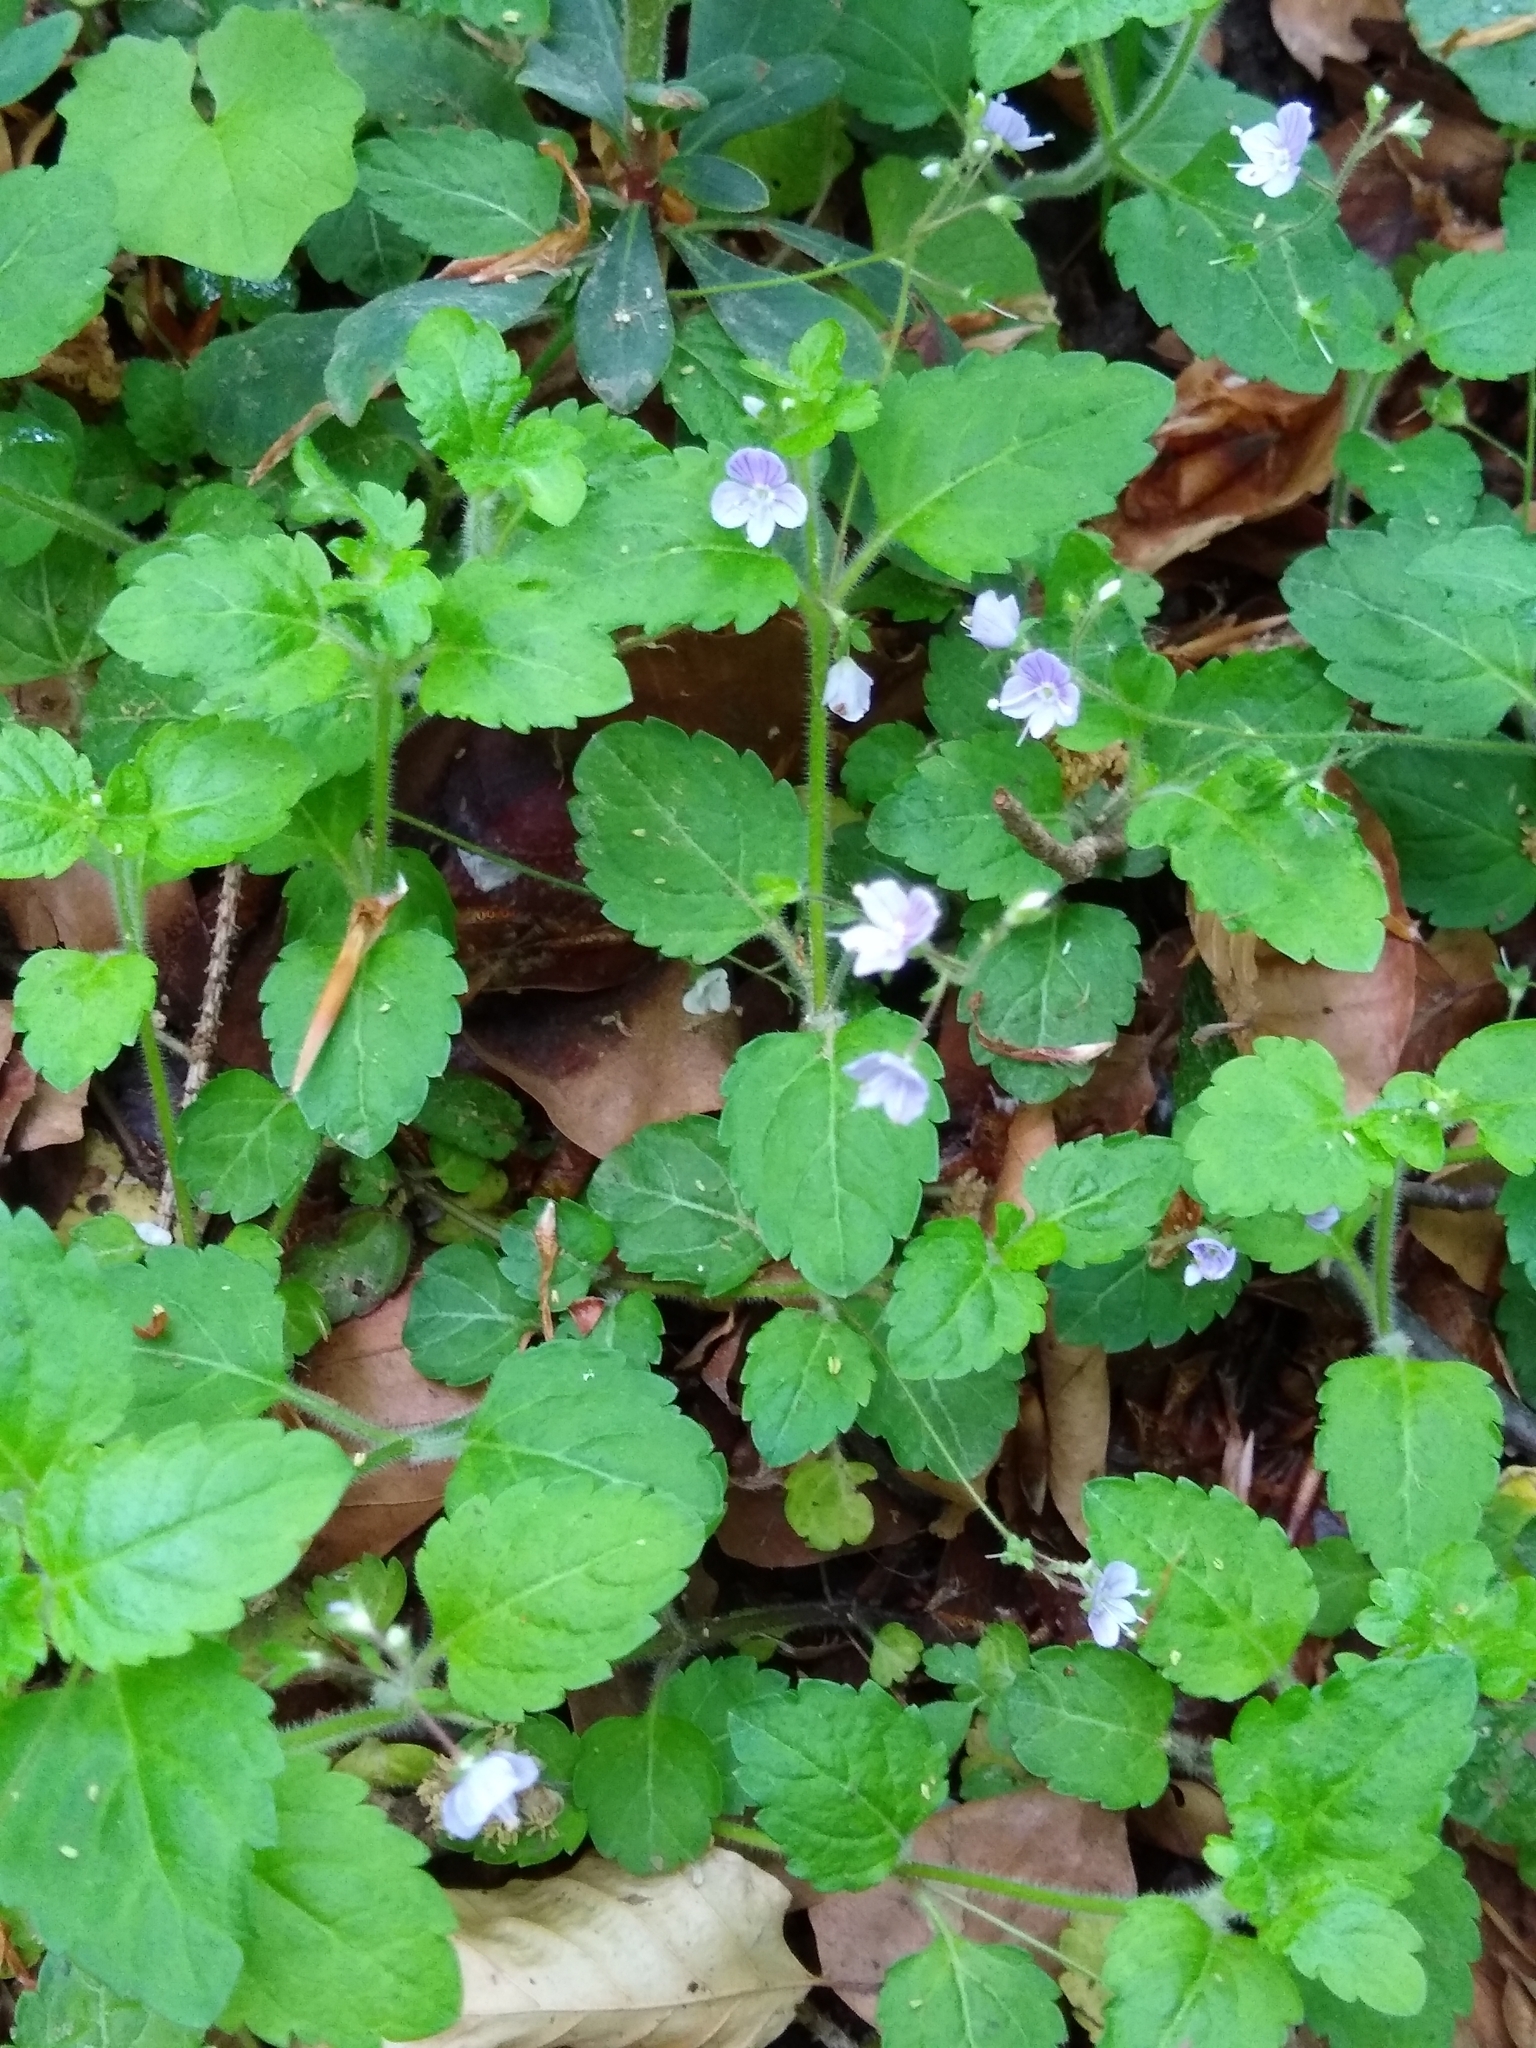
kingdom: Plantae
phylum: Tracheophyta
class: Magnoliopsida
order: Lamiales
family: Plantaginaceae
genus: Veronica
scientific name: Veronica montana
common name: Wood speedwell
